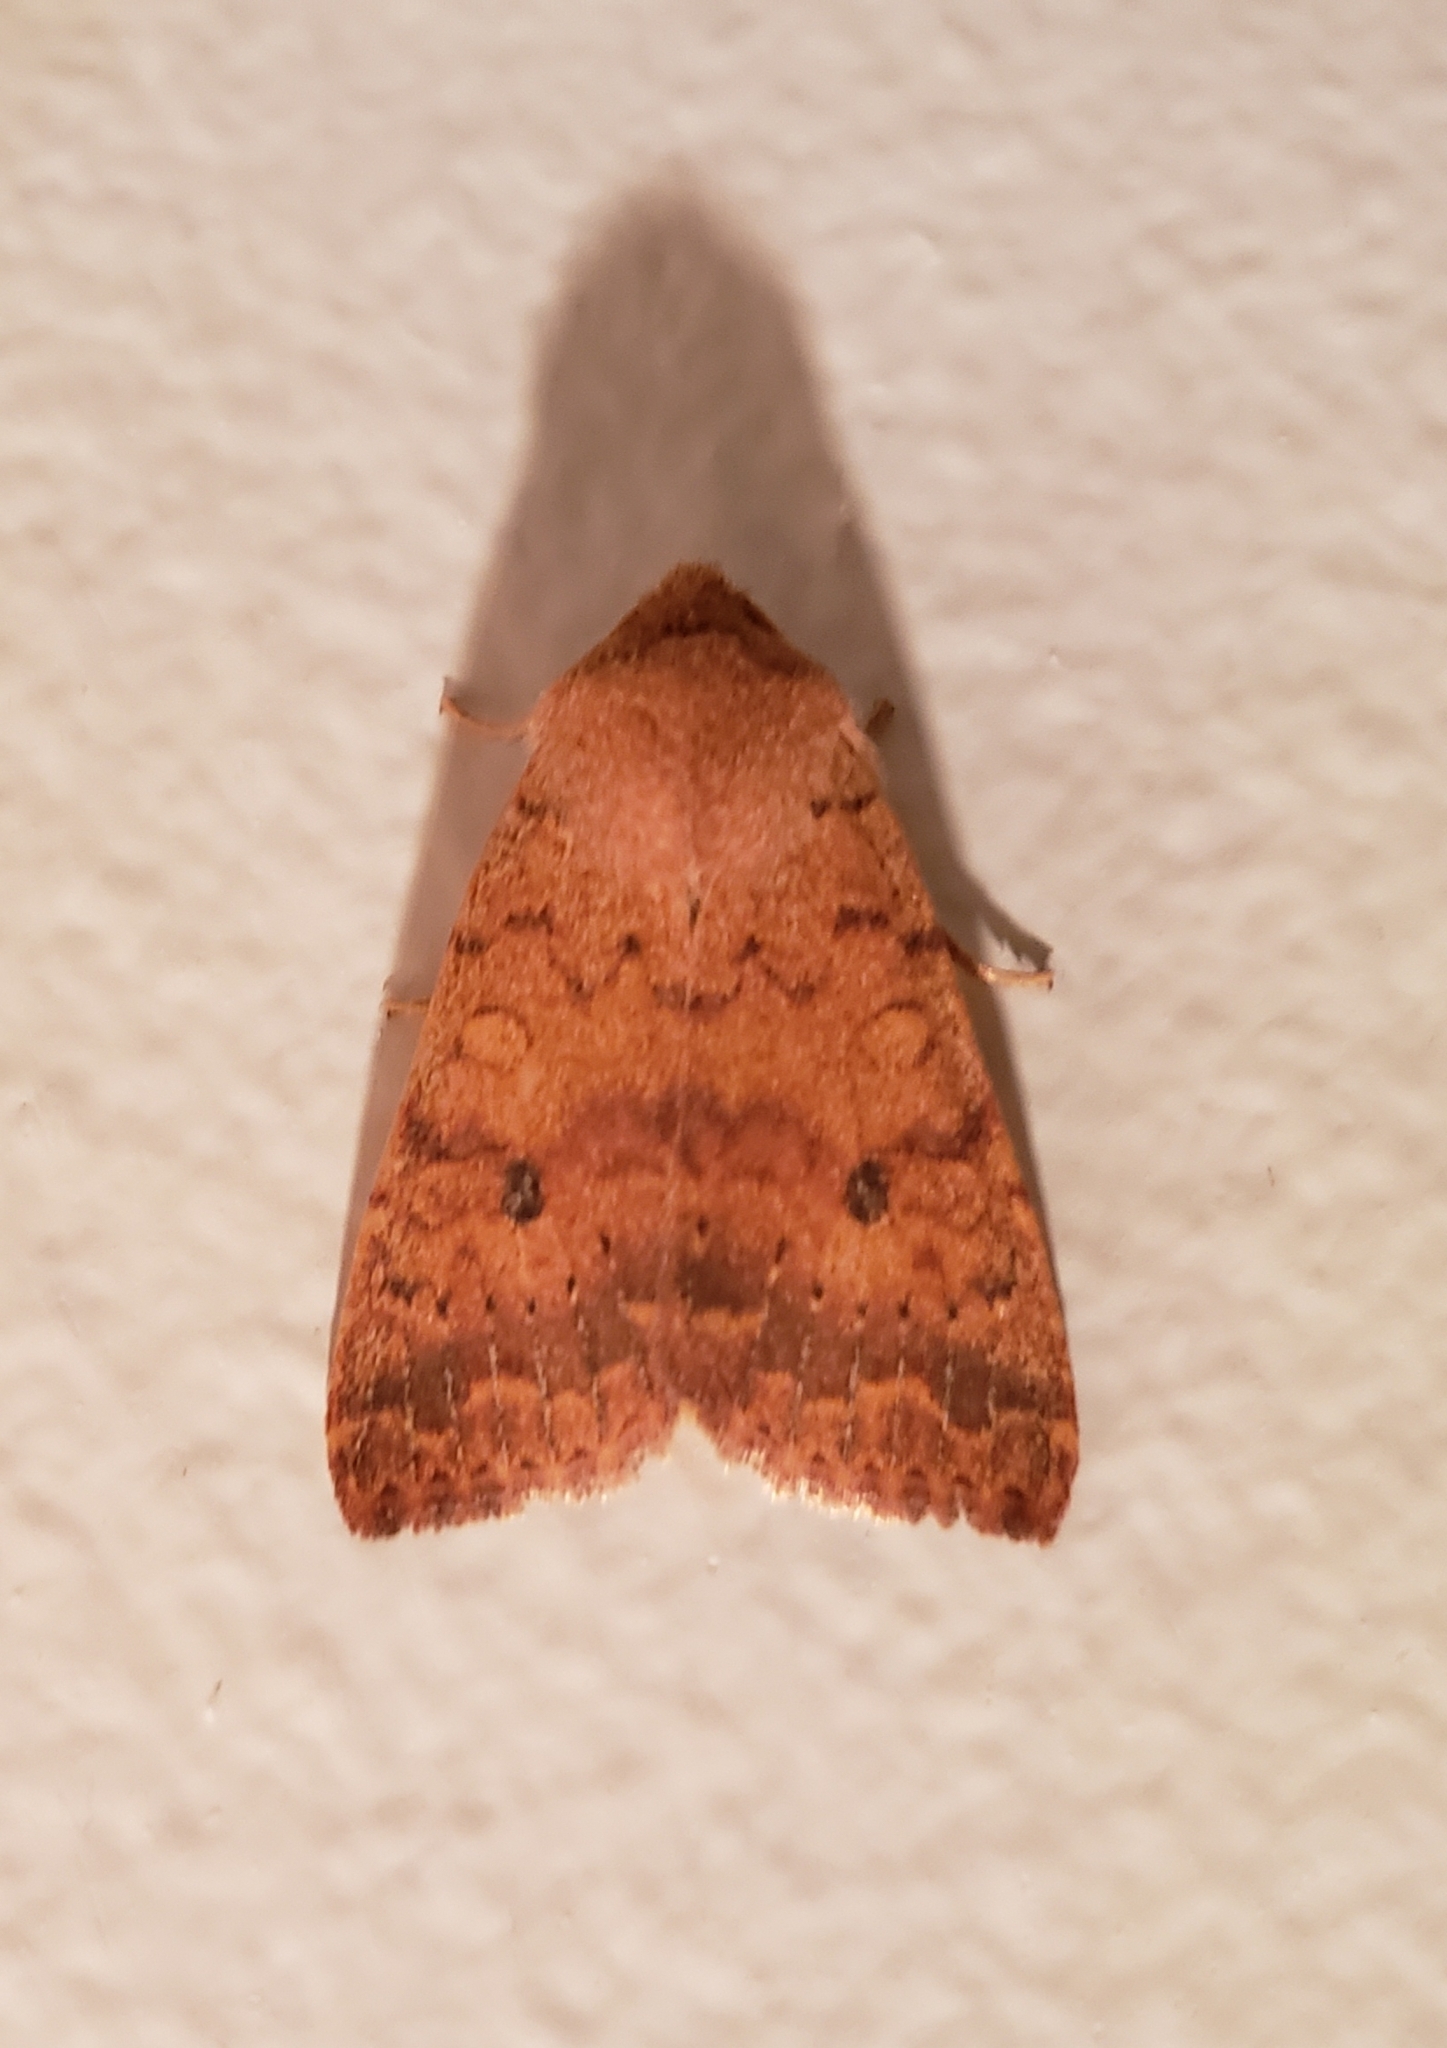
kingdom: Animalia
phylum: Arthropoda
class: Insecta
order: Lepidoptera
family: Noctuidae
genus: Agrochola
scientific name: Agrochola bicolorago
